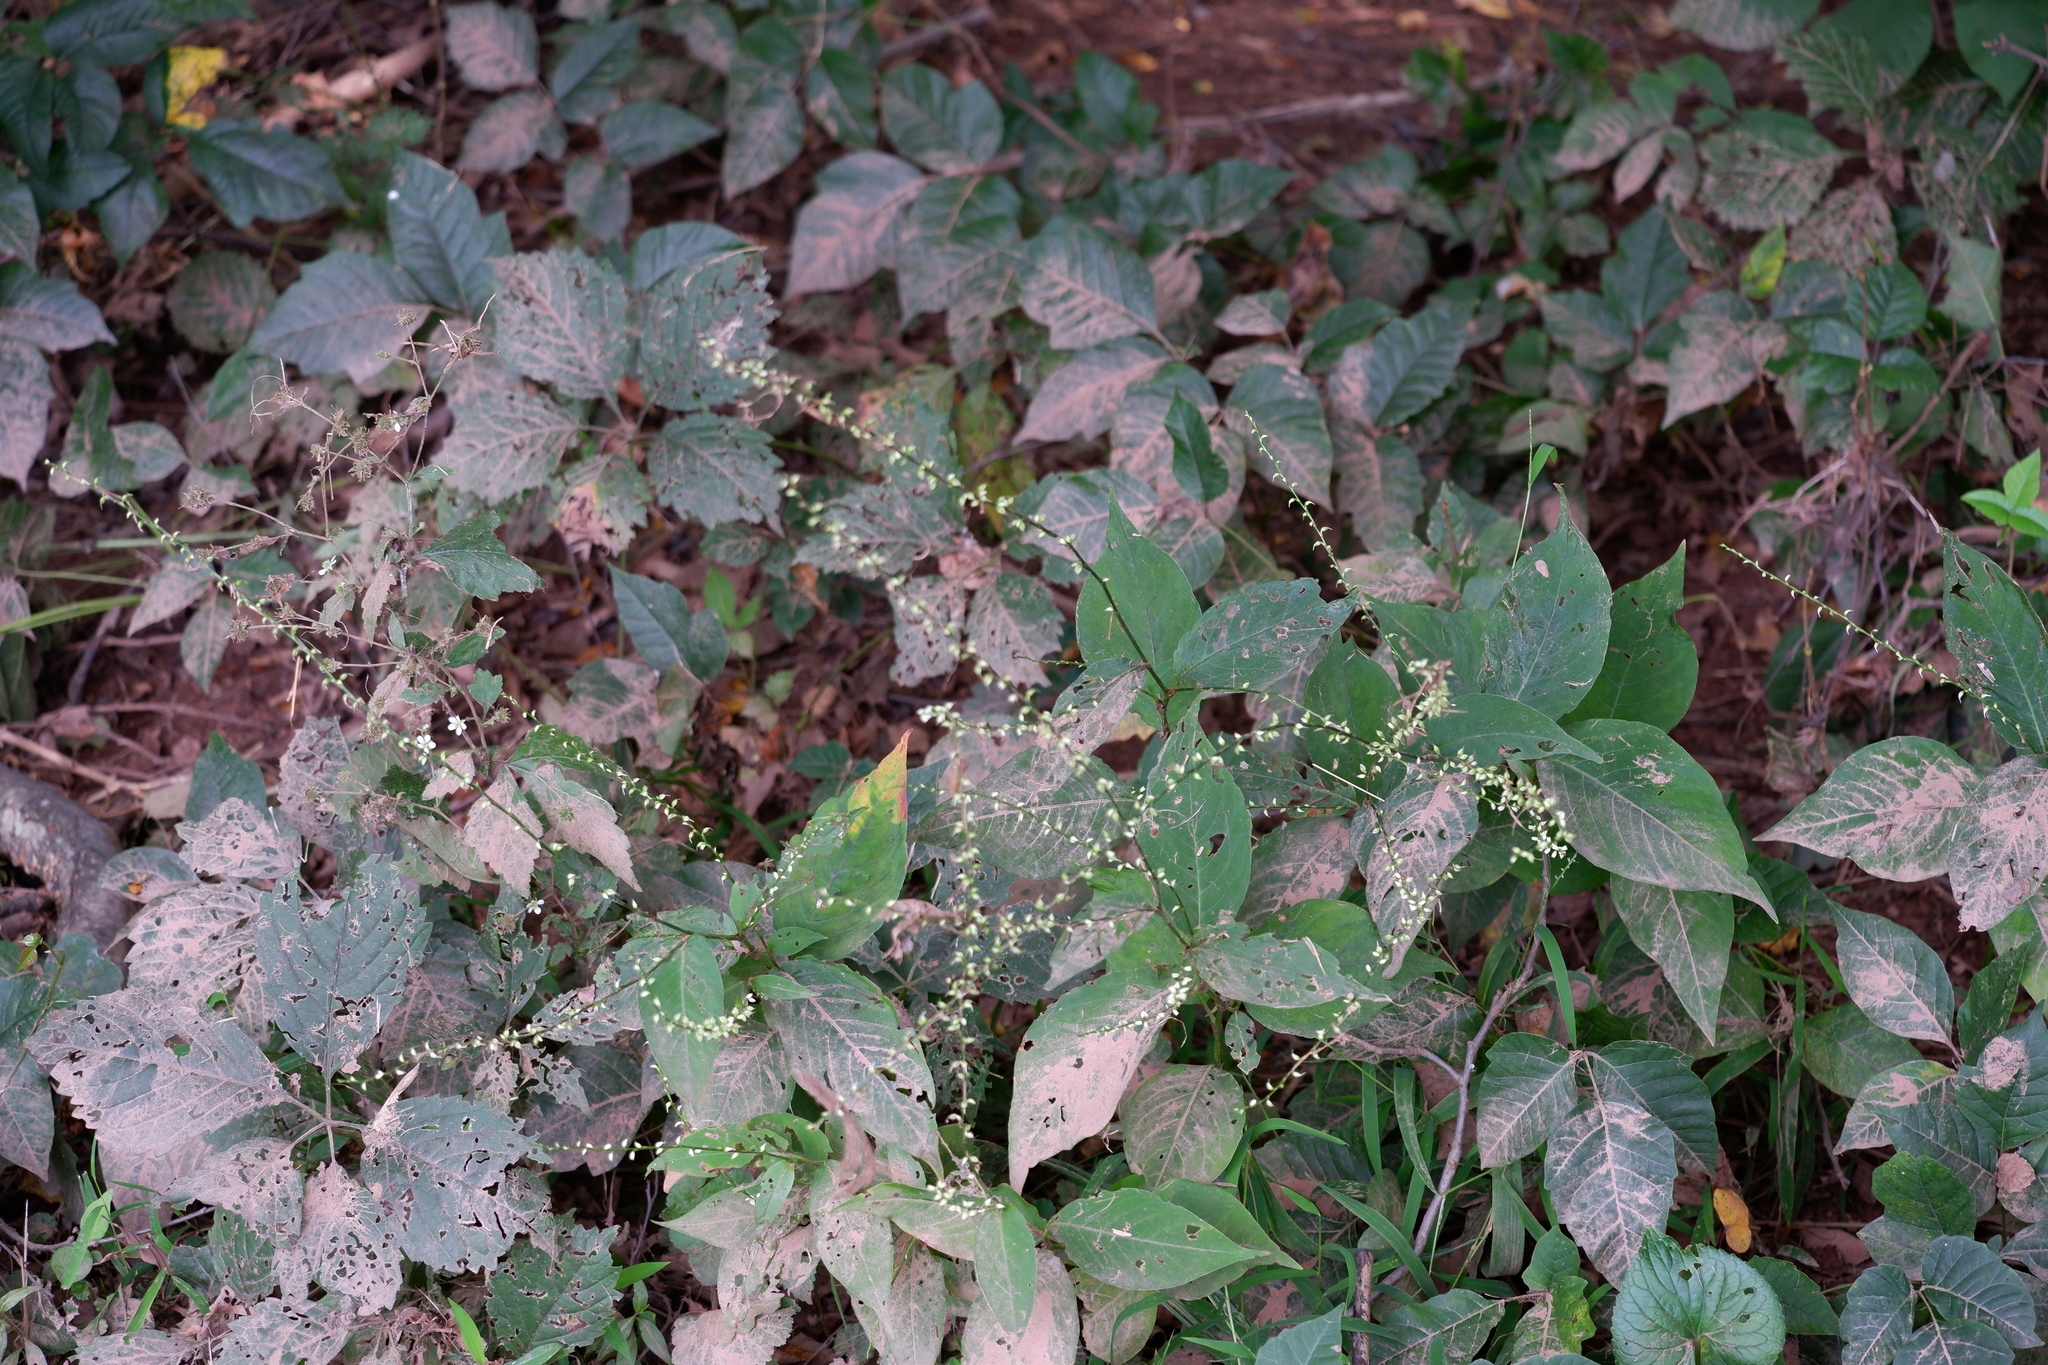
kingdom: Plantae
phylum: Tracheophyta
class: Magnoliopsida
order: Caryophyllales
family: Polygonaceae
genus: Persicaria
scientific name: Persicaria virginiana
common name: Jumpseed
